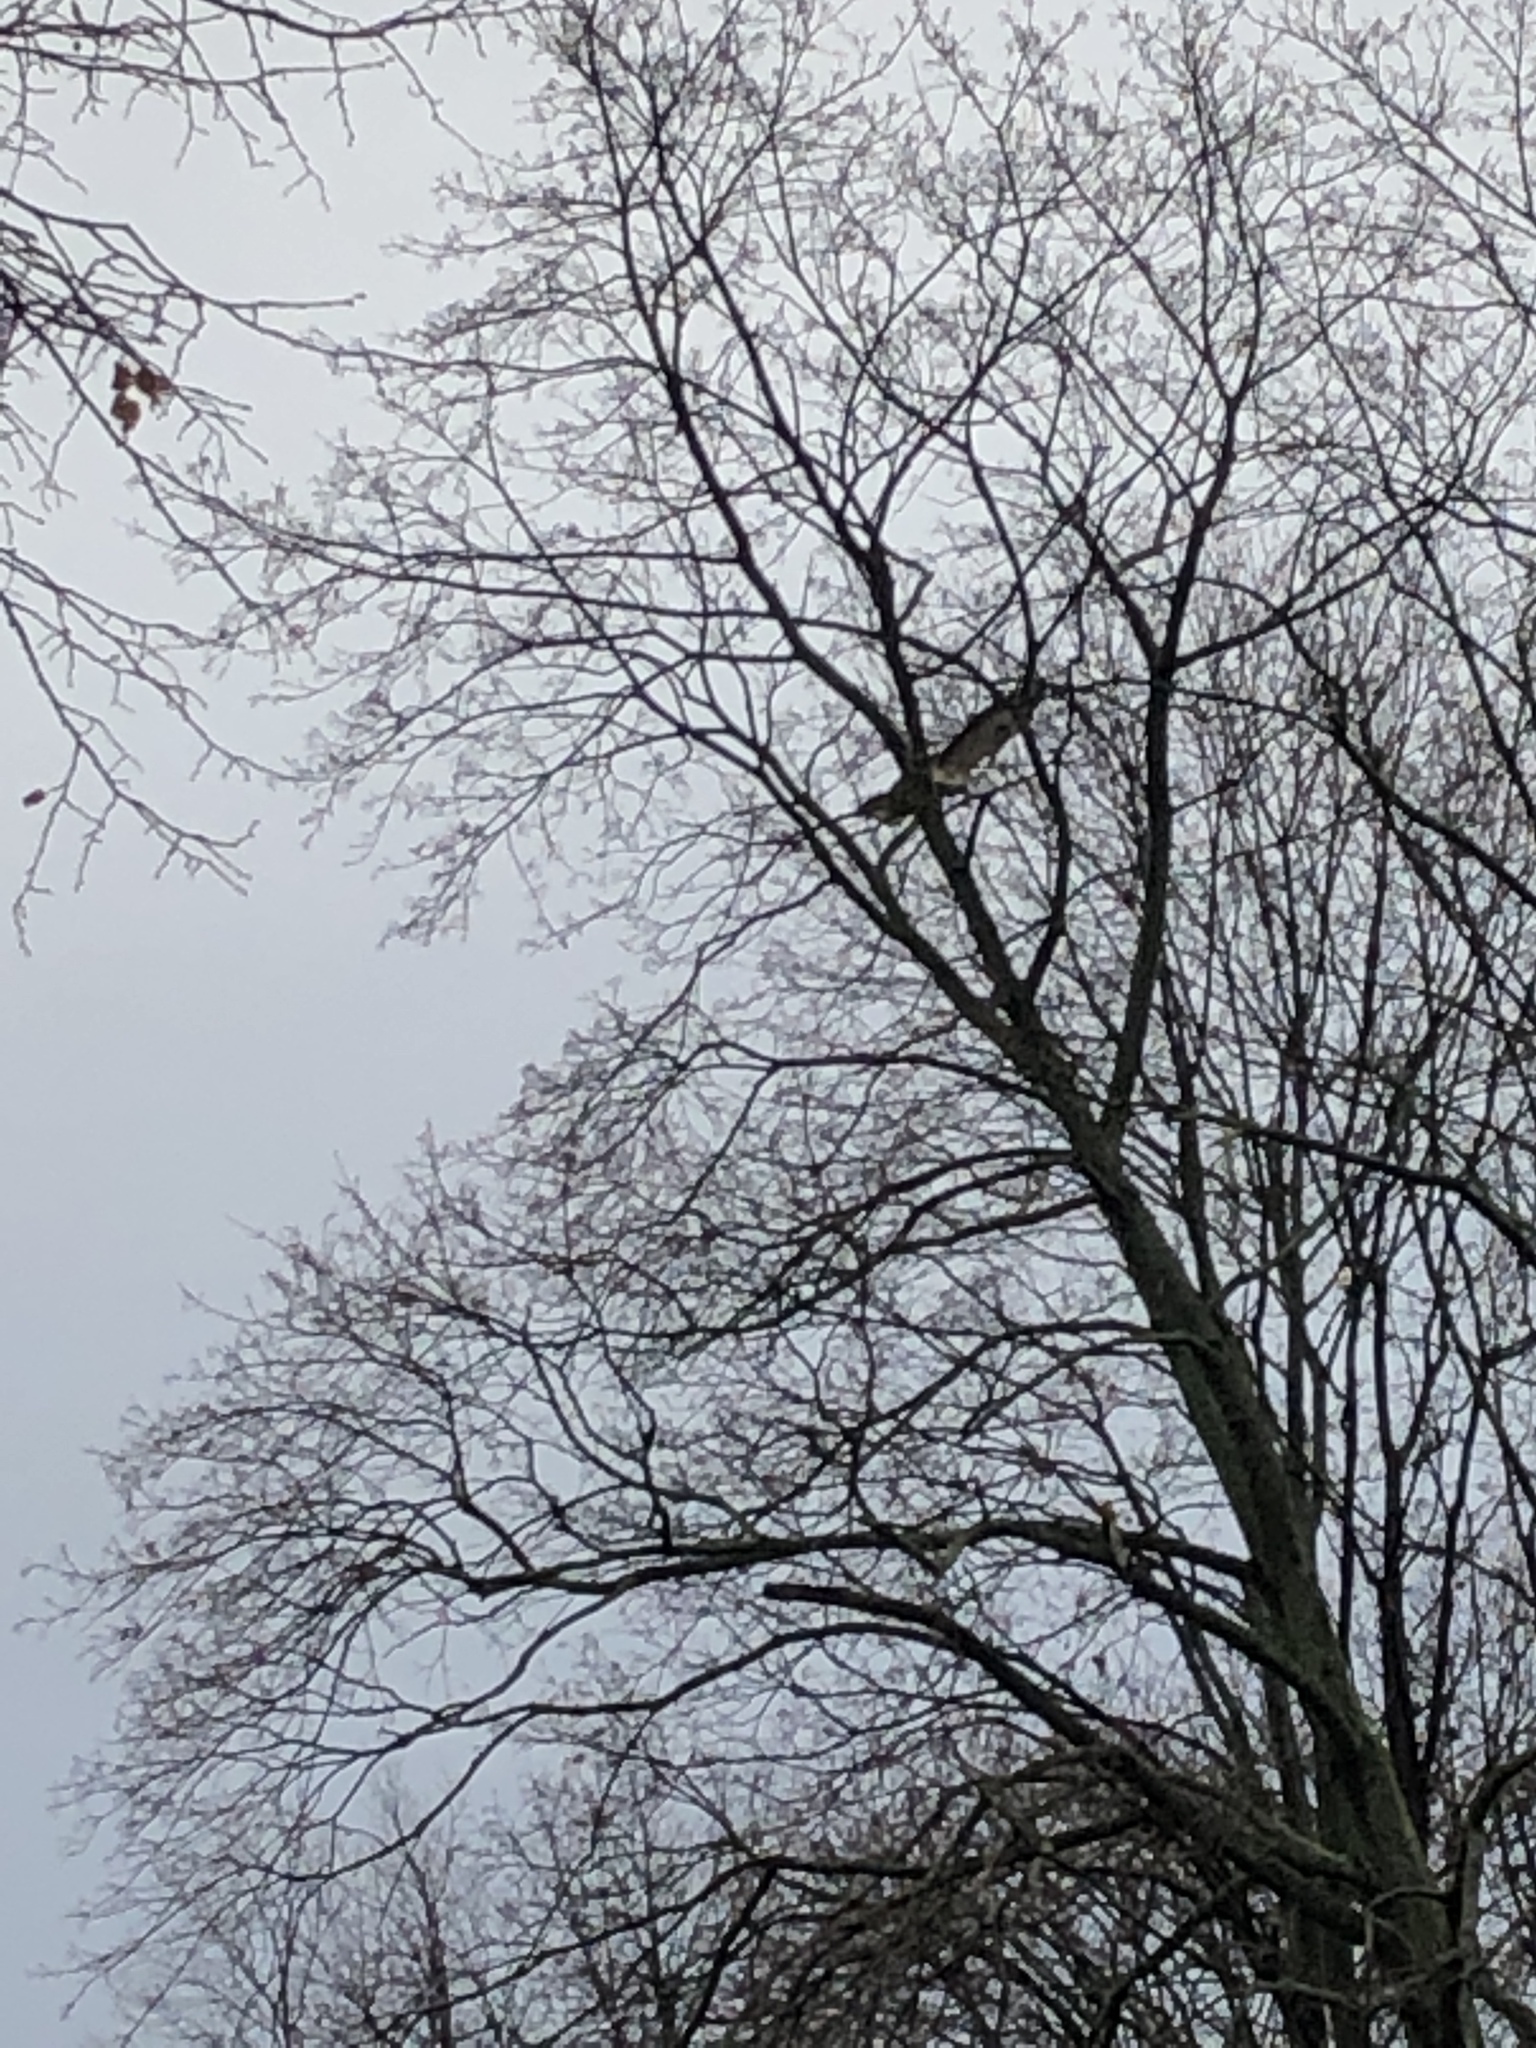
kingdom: Animalia
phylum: Chordata
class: Aves
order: Accipitriformes
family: Accipitridae
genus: Buteo
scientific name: Buteo buteo
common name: Common buzzard
